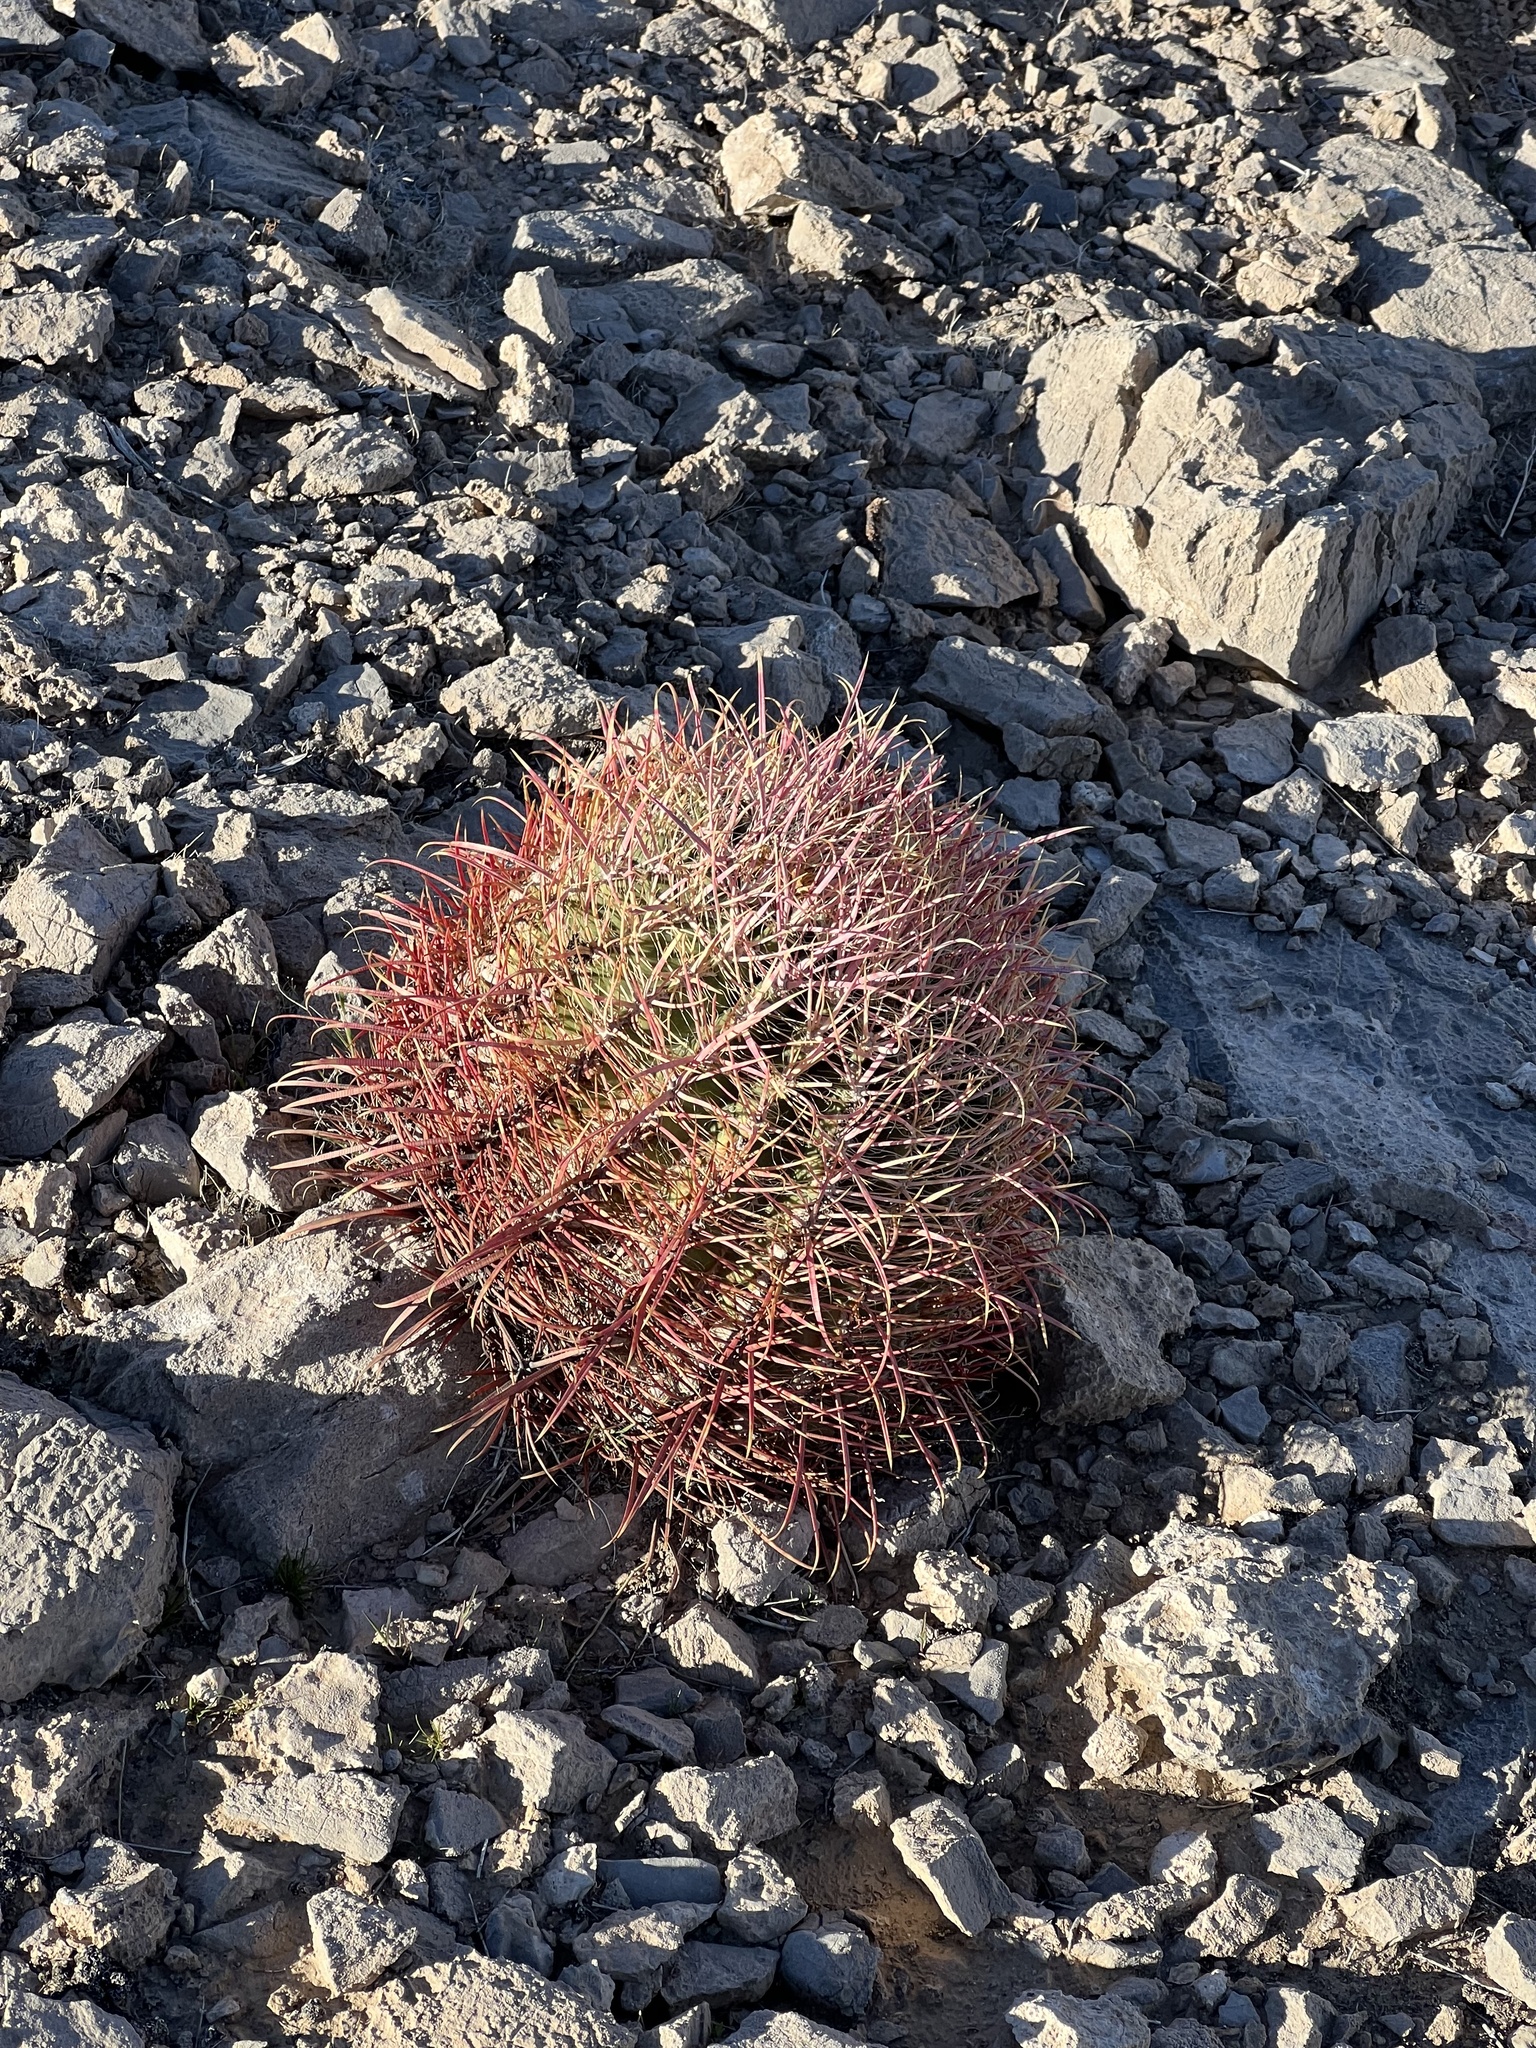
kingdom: Plantae
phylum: Tracheophyta
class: Magnoliopsida
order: Caryophyllales
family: Cactaceae
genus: Ferocactus
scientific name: Ferocactus cylindraceus
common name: California barrel cactus
